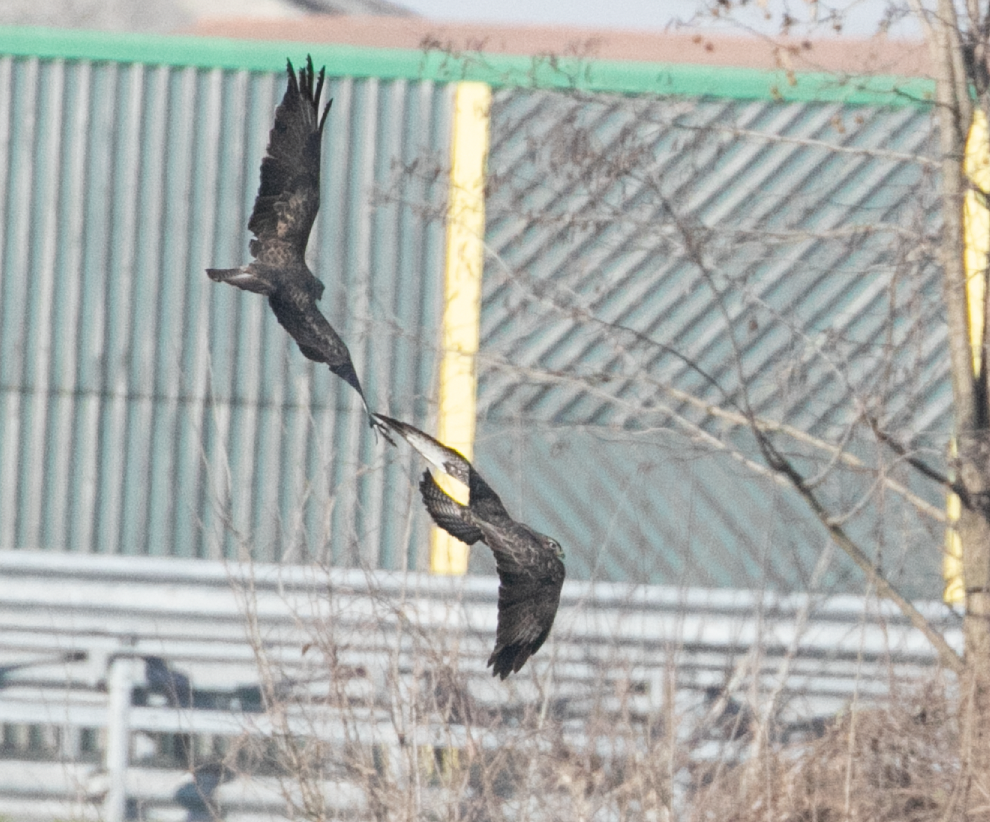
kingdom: Animalia
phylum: Chordata
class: Aves
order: Accipitriformes
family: Accipitridae
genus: Buteo
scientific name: Buteo buteo
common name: Common buzzard
